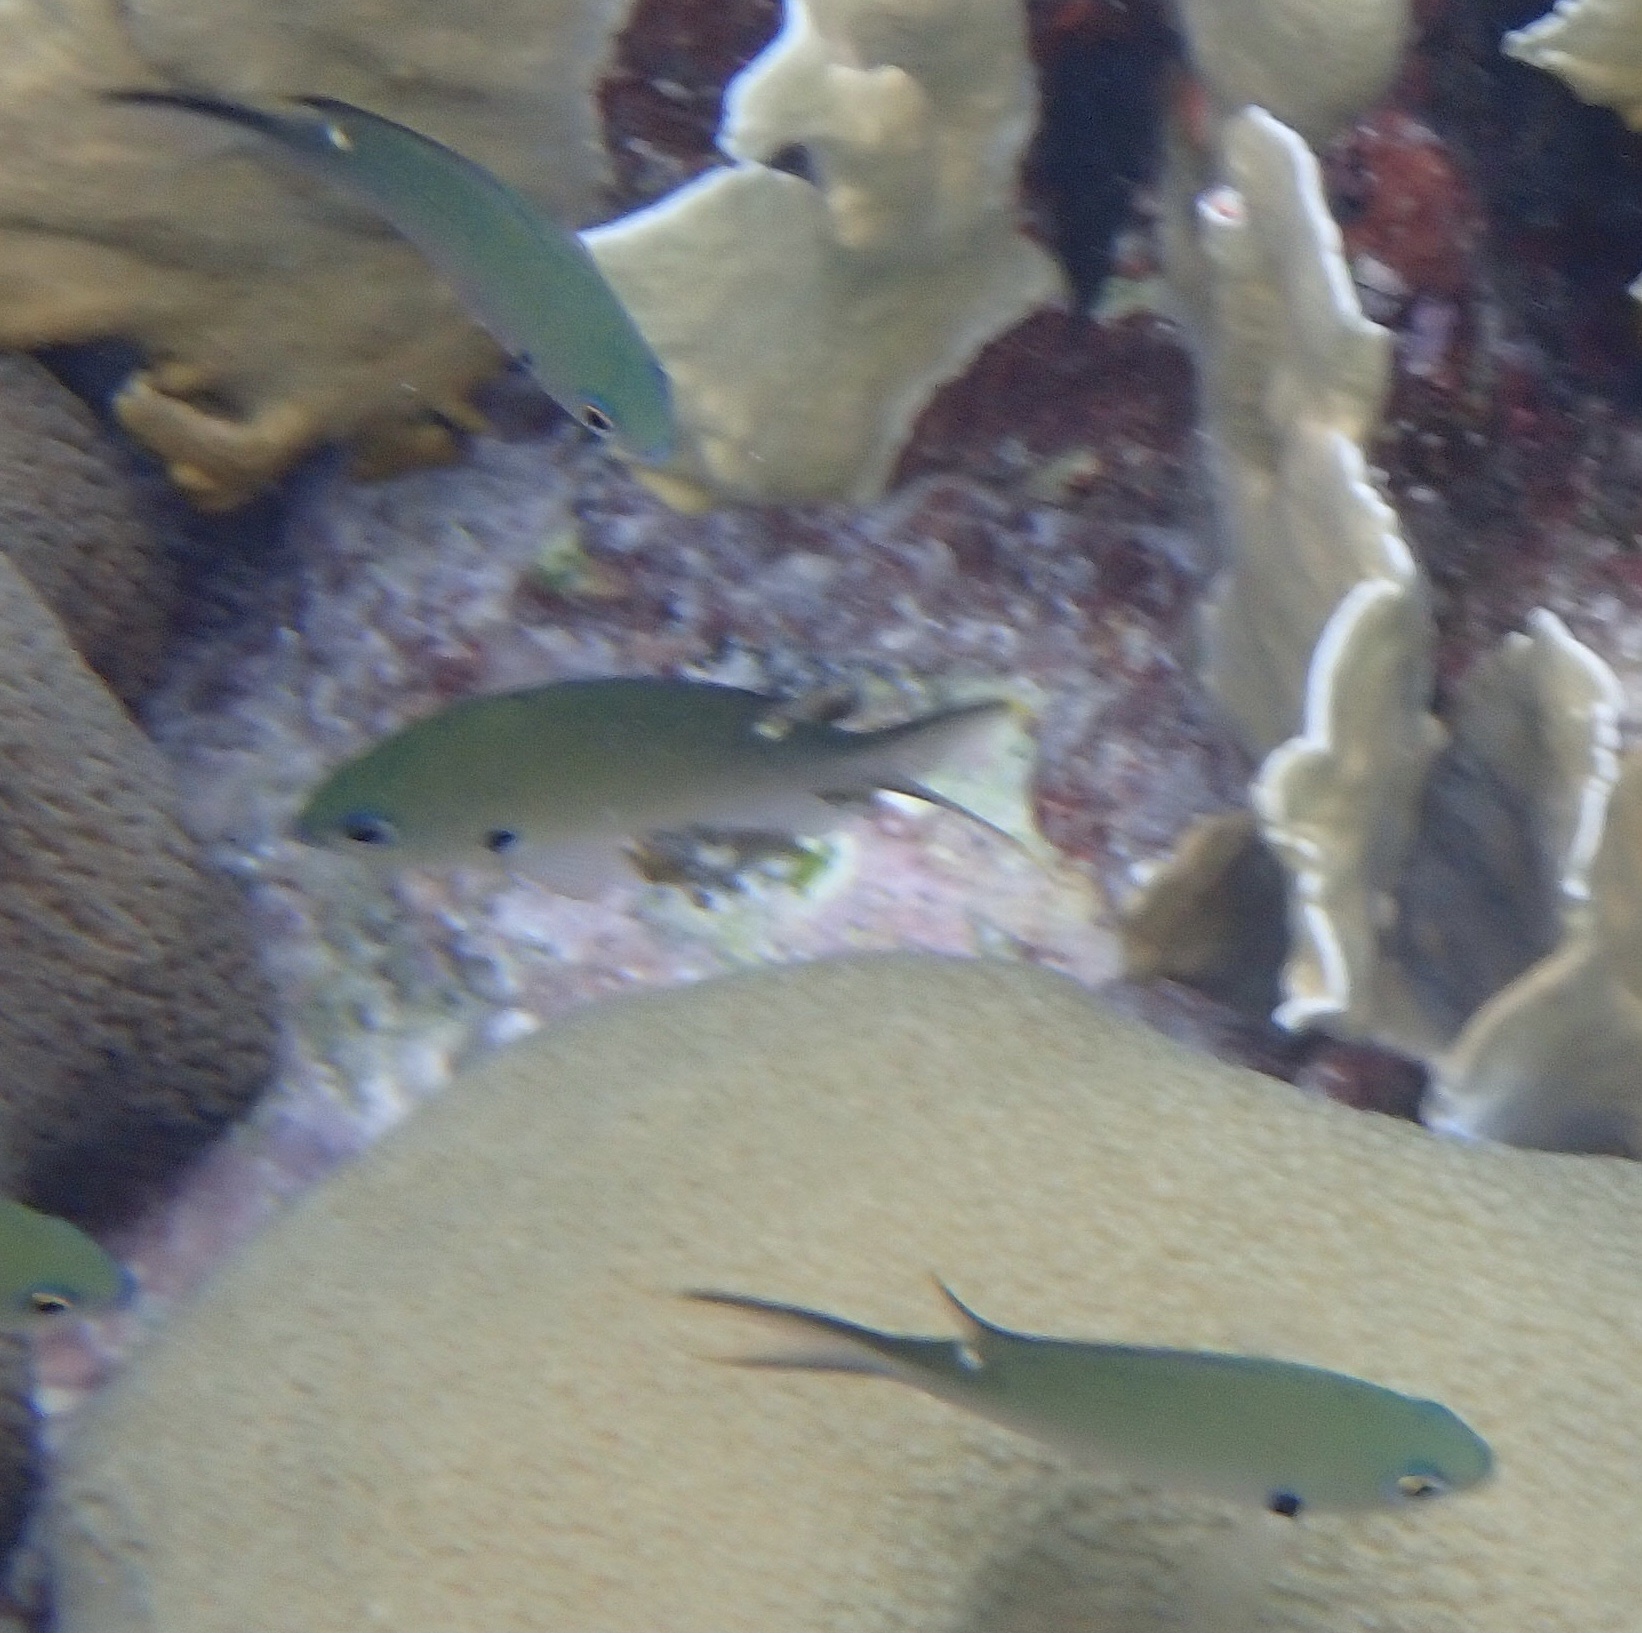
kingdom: Animalia
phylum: Chordata
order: Perciformes
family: Pomacentridae
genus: Chromis
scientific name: Chromis multilineata
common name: Brown chromis
